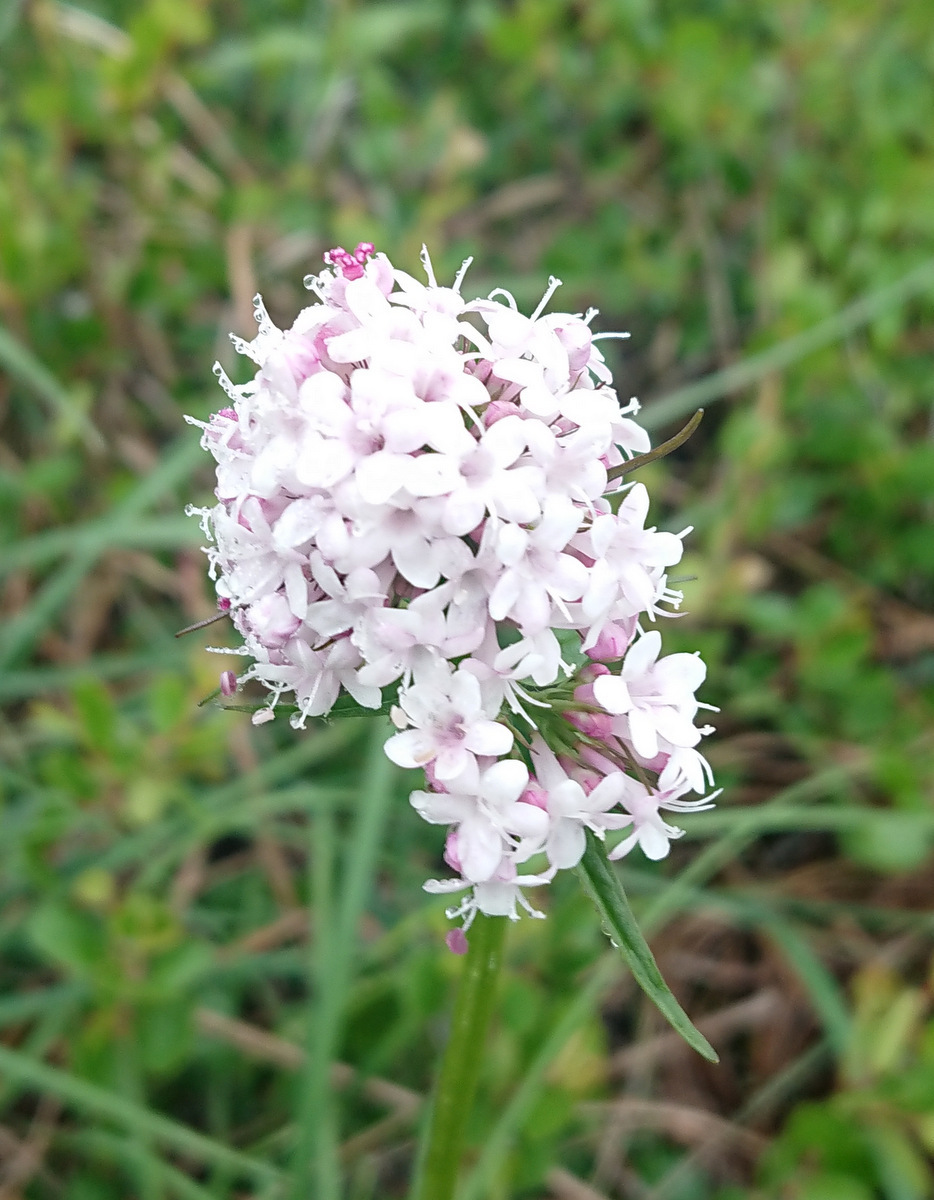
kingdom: Plantae
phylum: Tracheophyta
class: Magnoliopsida
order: Dipsacales
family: Caprifoliaceae
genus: Valeriana
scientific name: Valeriana capitata
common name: Capitate valerian
